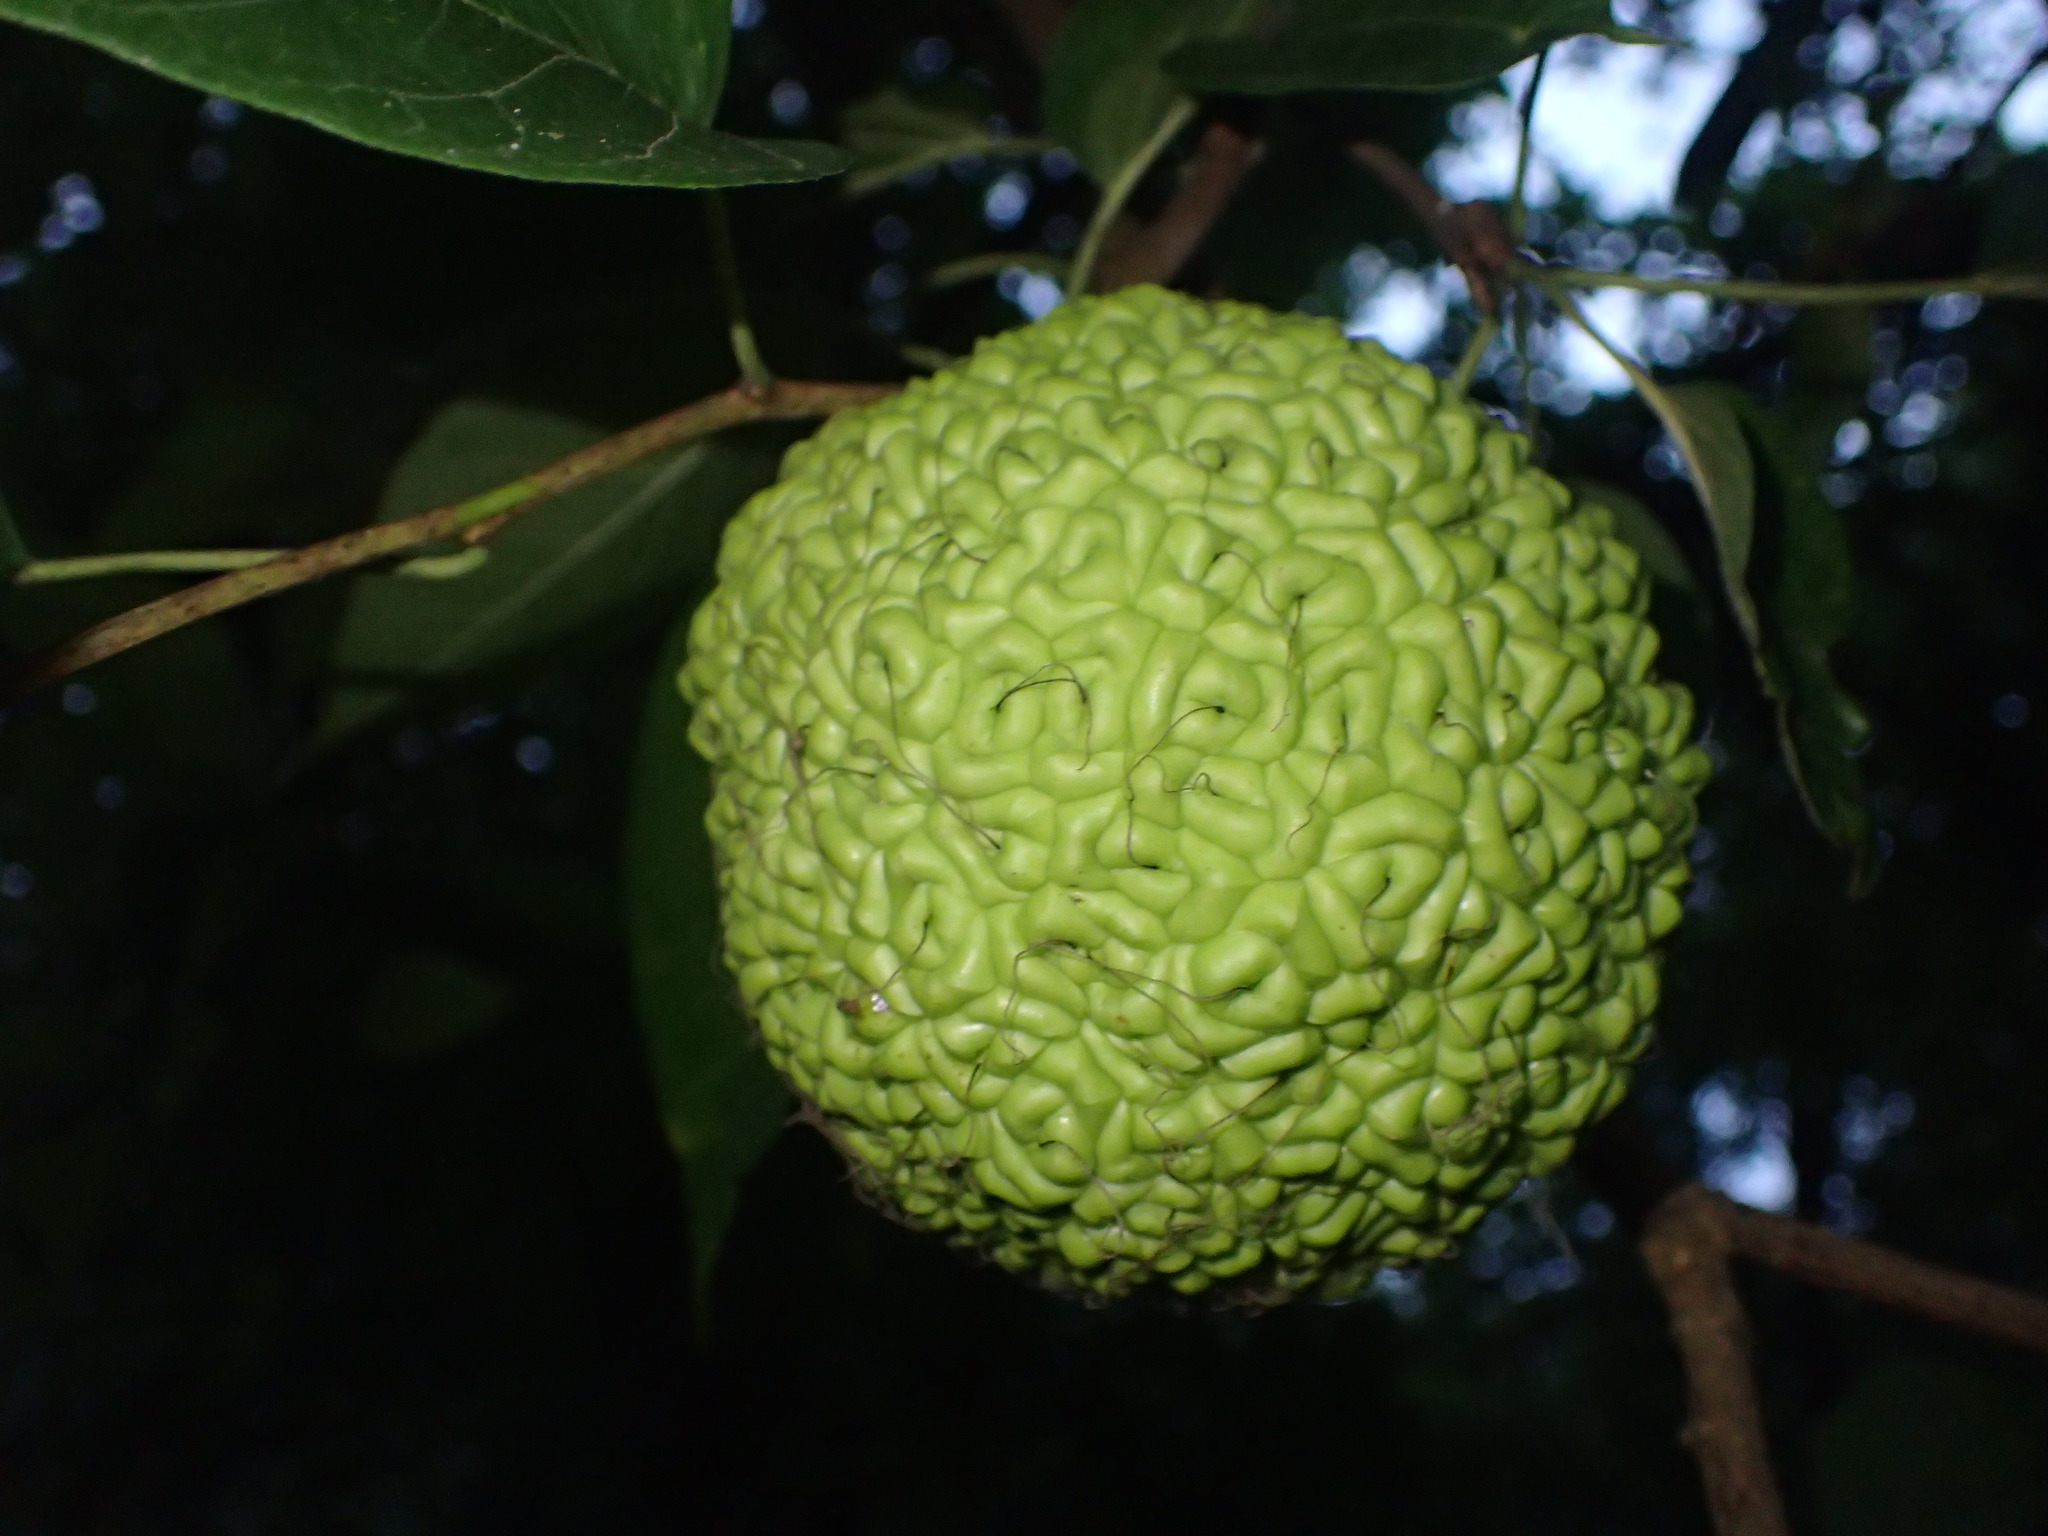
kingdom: Plantae
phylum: Tracheophyta
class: Magnoliopsida
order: Rosales
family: Moraceae
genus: Maclura
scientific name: Maclura pomifera
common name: Osage-orange
